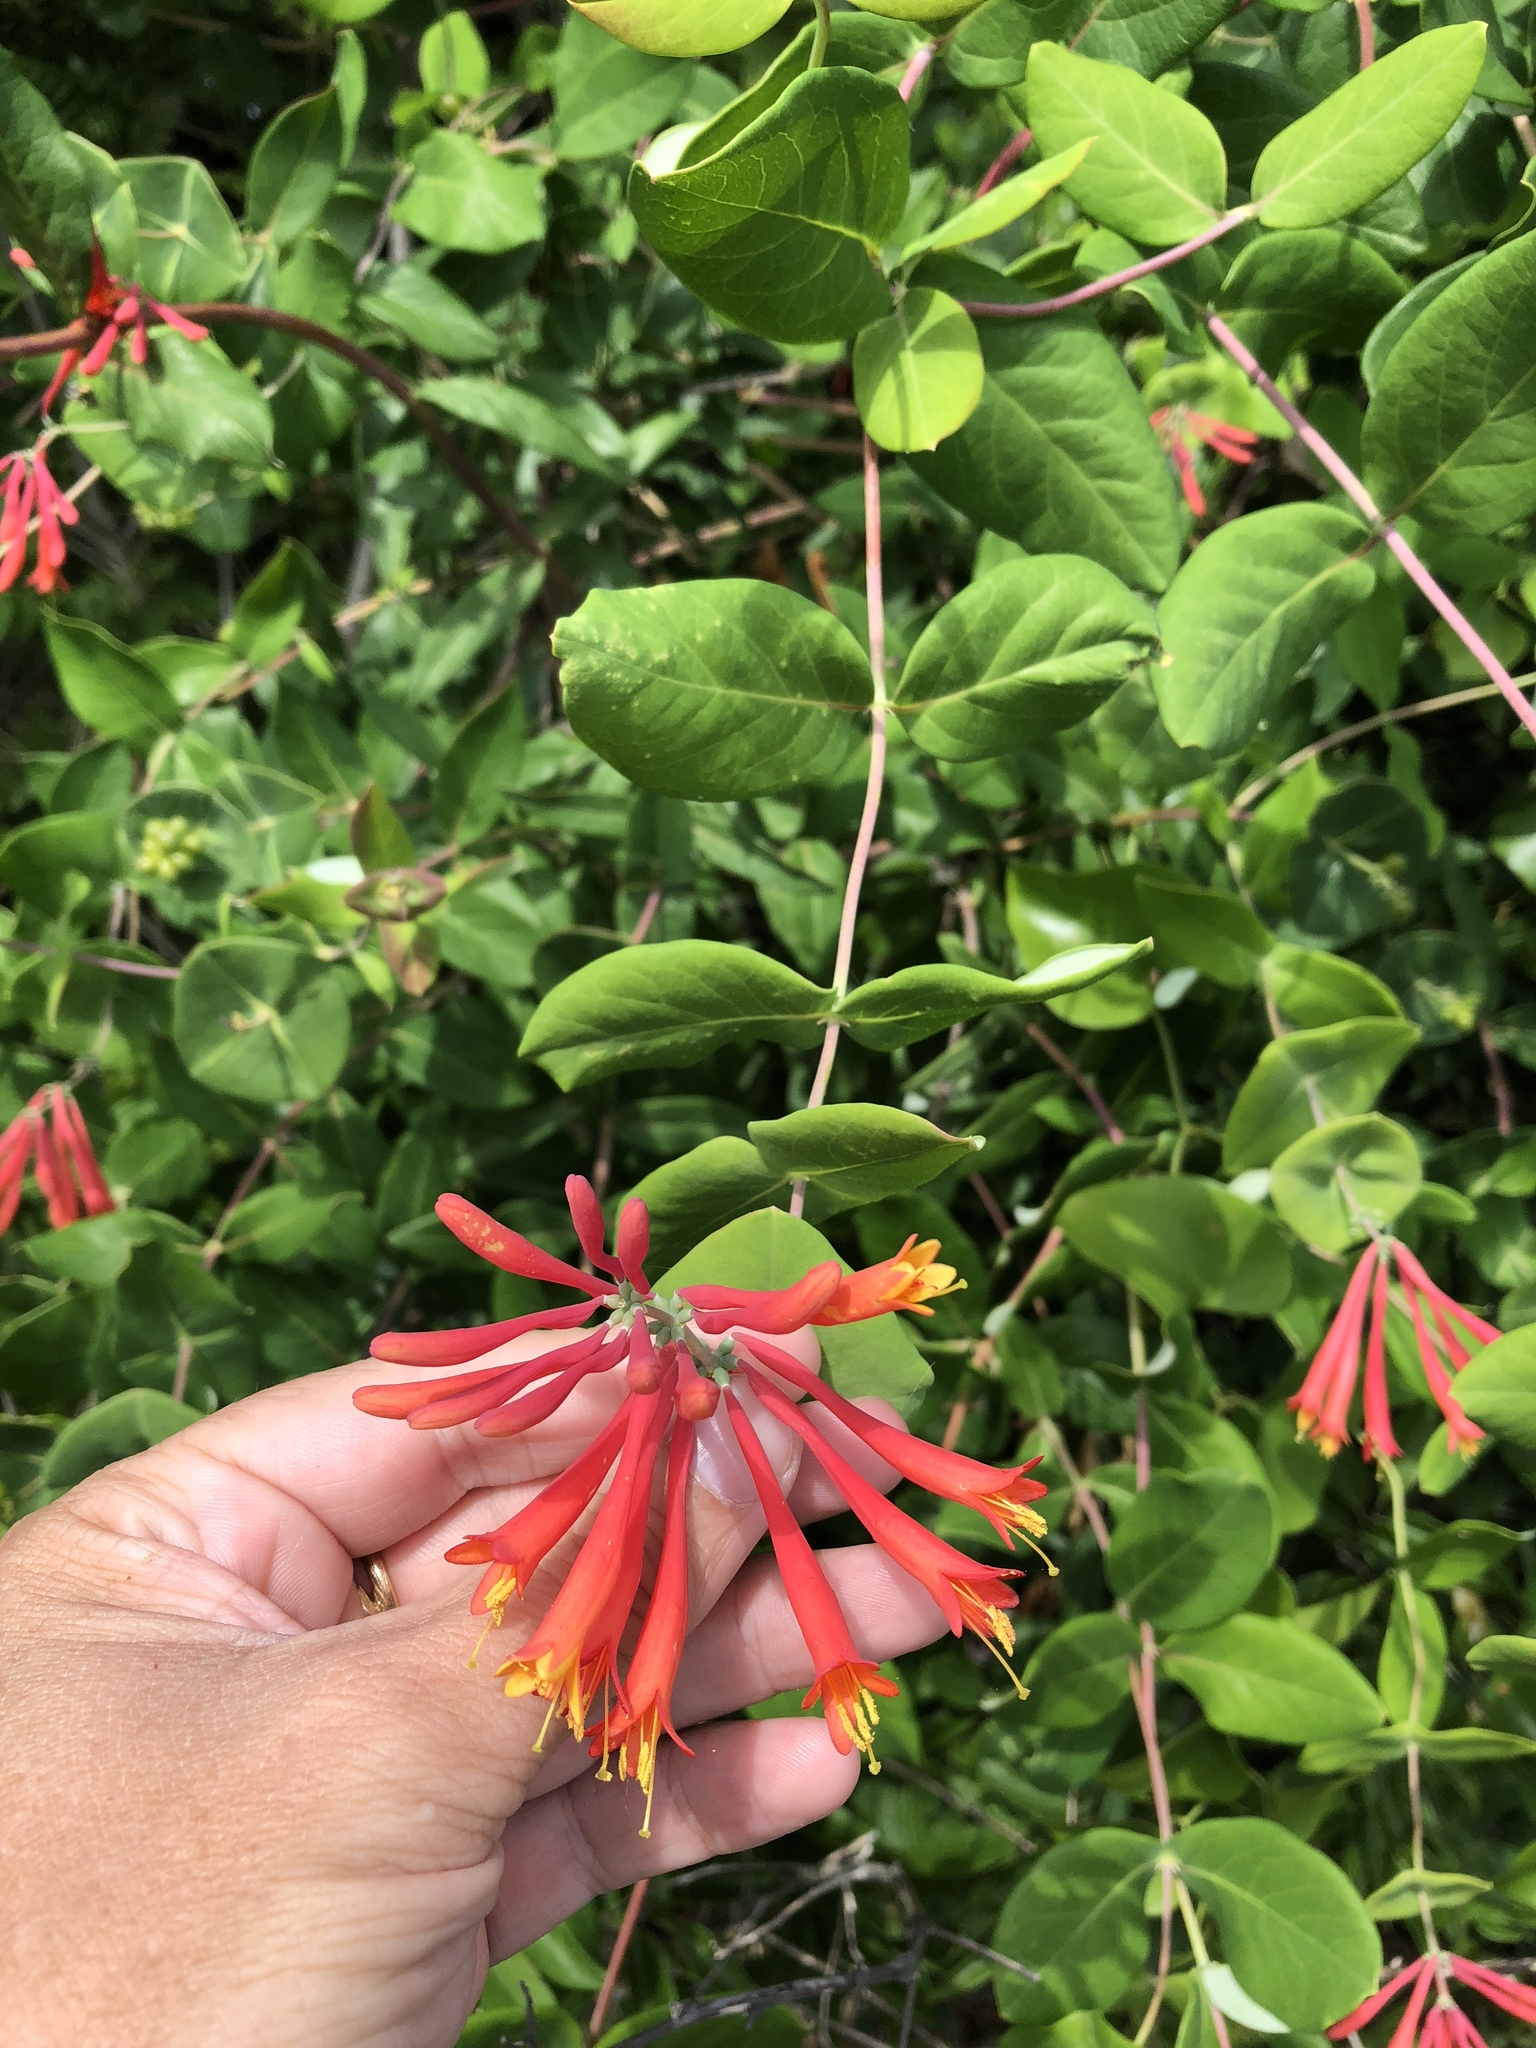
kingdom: Plantae
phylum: Tracheophyta
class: Magnoliopsida
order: Dipsacales
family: Caprifoliaceae
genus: Lonicera
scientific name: Lonicera sempervirens
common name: Coral honeysuckle
